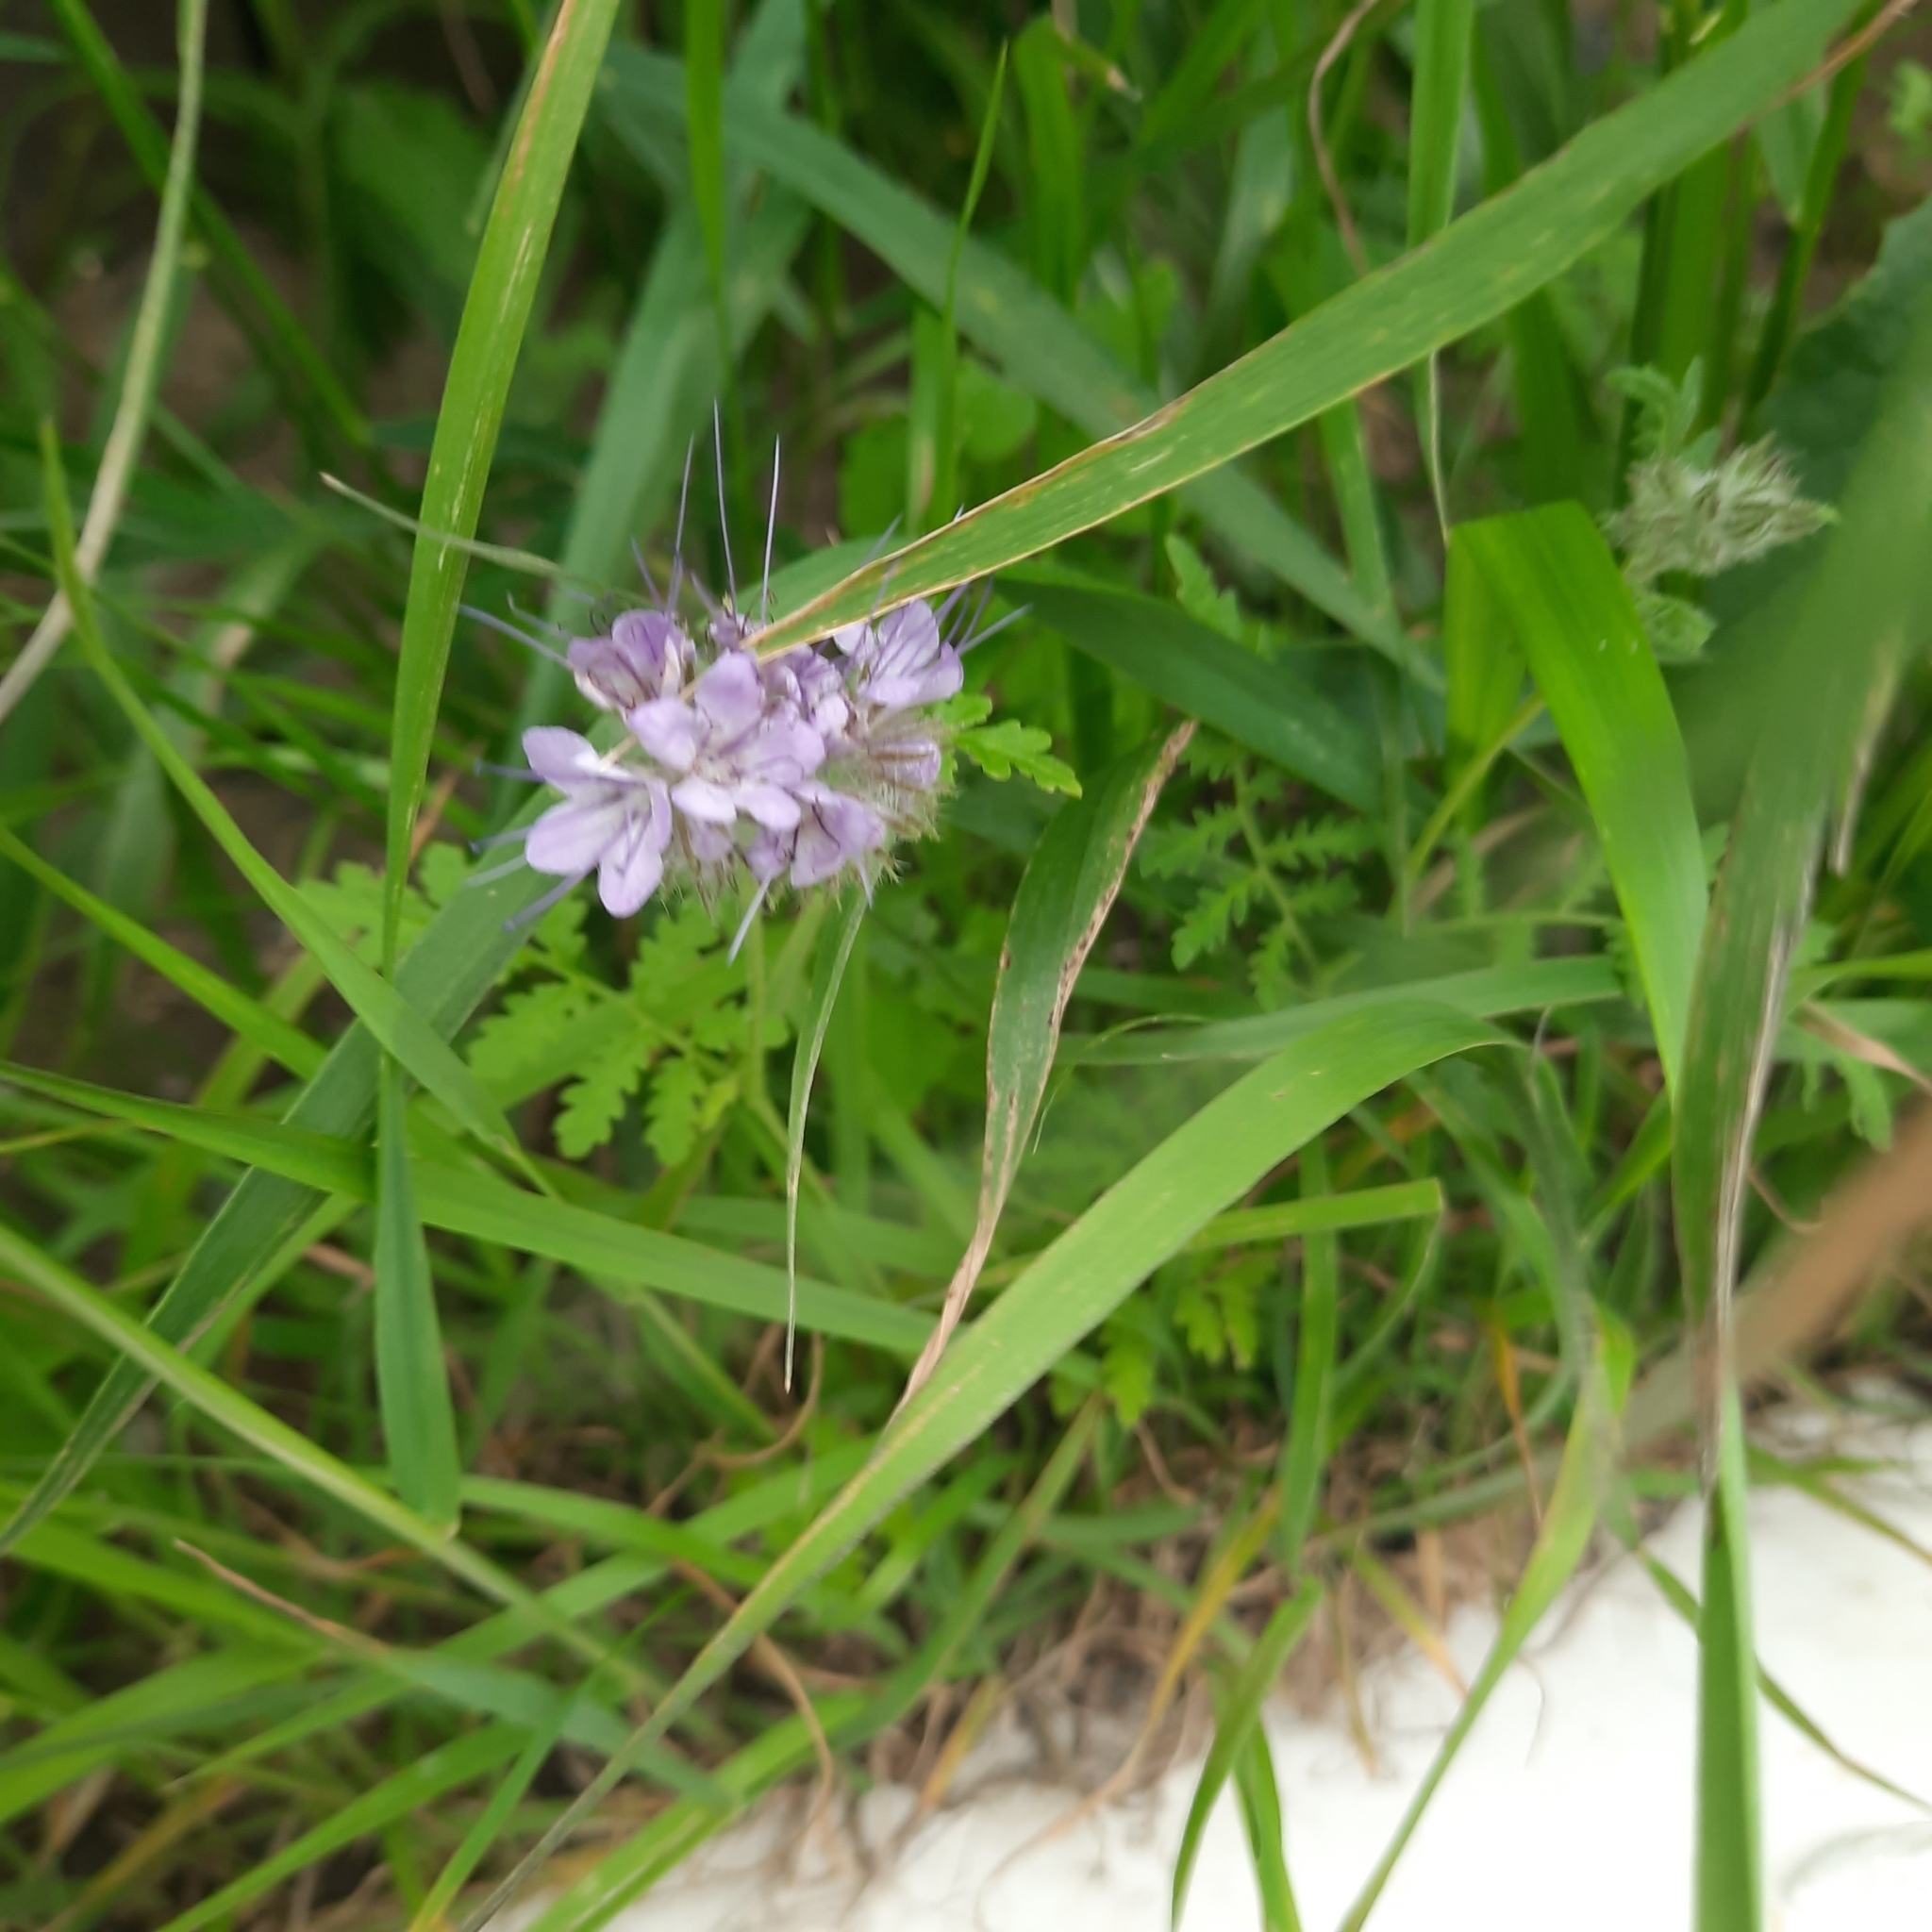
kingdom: Plantae
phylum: Tracheophyta
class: Magnoliopsida
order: Boraginales
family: Hydrophyllaceae
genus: Phacelia
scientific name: Phacelia tanacetifolia
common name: Phacelia
